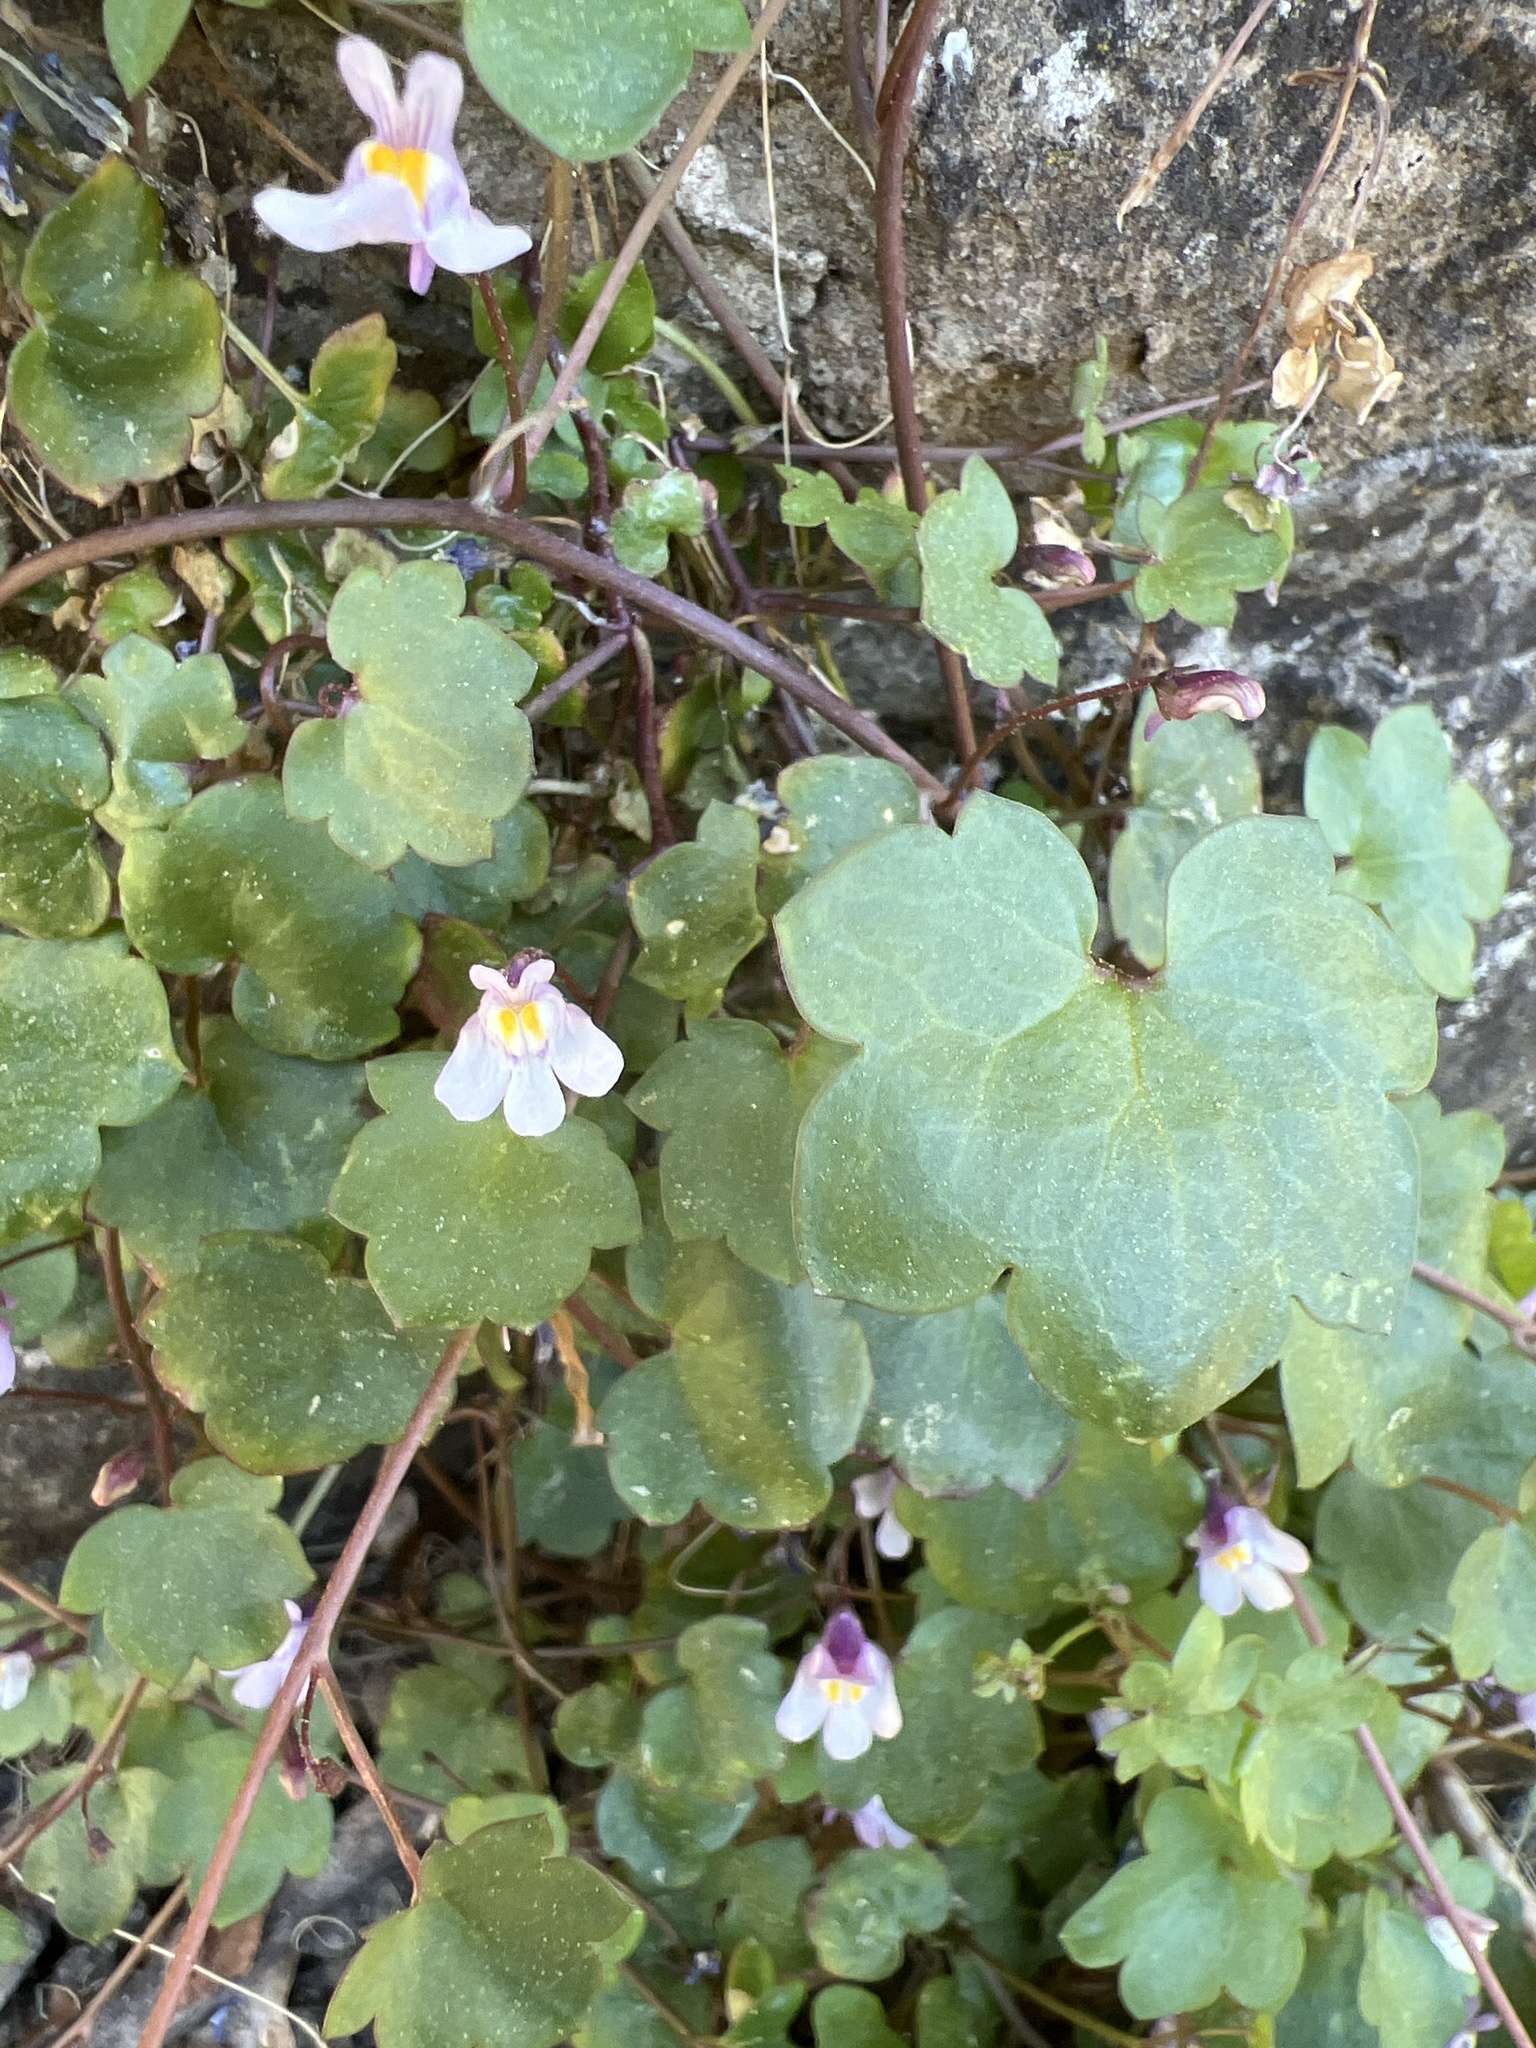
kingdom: Plantae
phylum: Tracheophyta
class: Magnoliopsida
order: Lamiales
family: Plantaginaceae
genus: Cymbalaria
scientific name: Cymbalaria muralis
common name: Ivy-leaved toadflax
